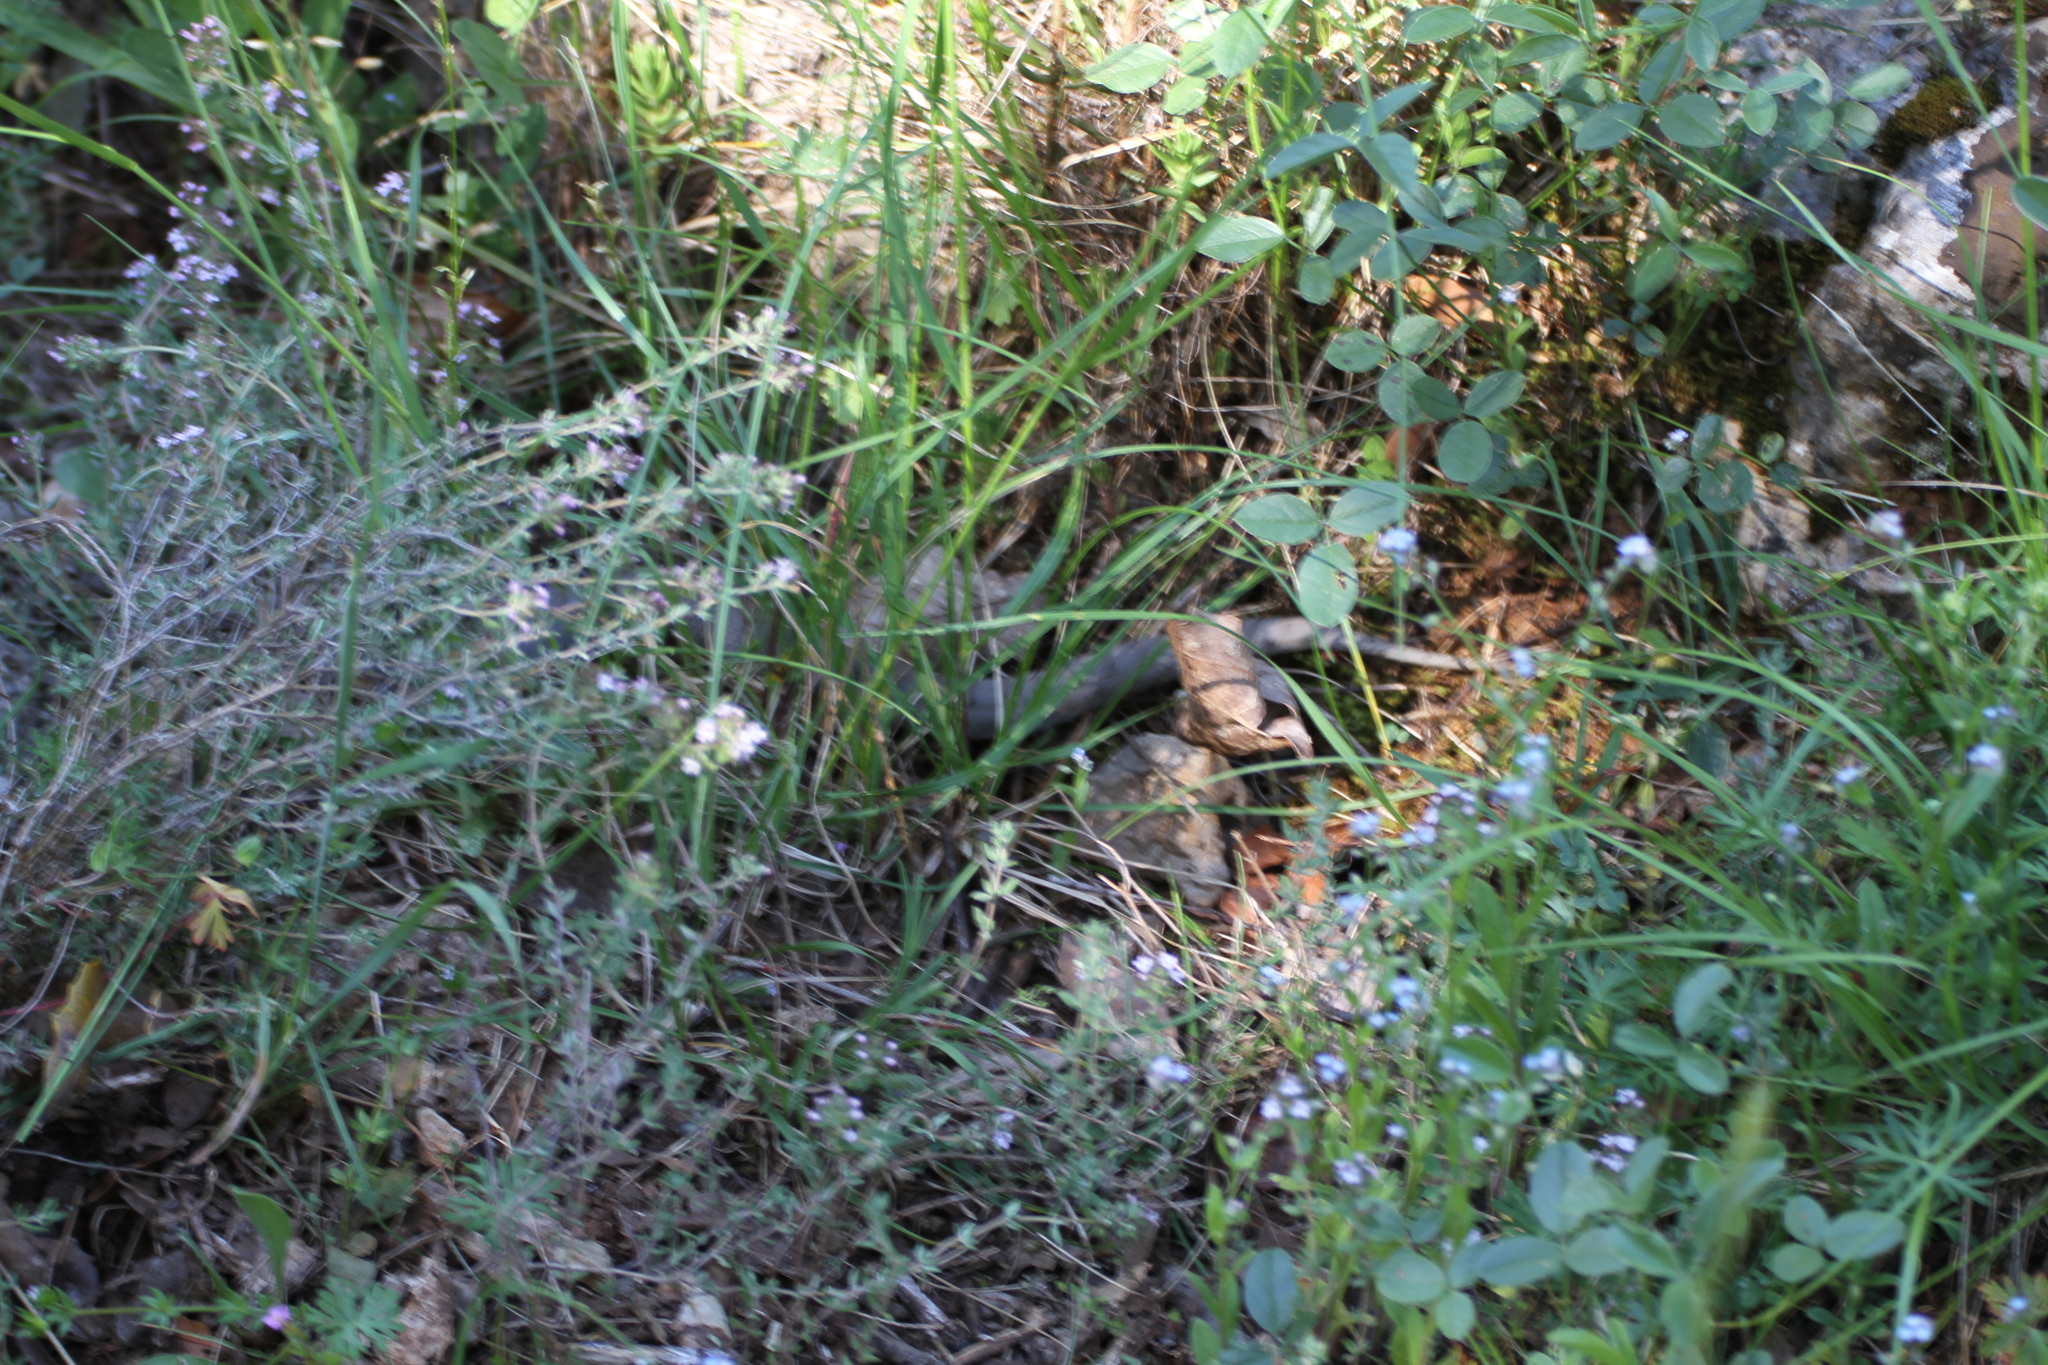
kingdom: Animalia
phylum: Chordata
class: Squamata
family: Viperidae
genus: Vipera
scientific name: Vipera aspis
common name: Asp viper
